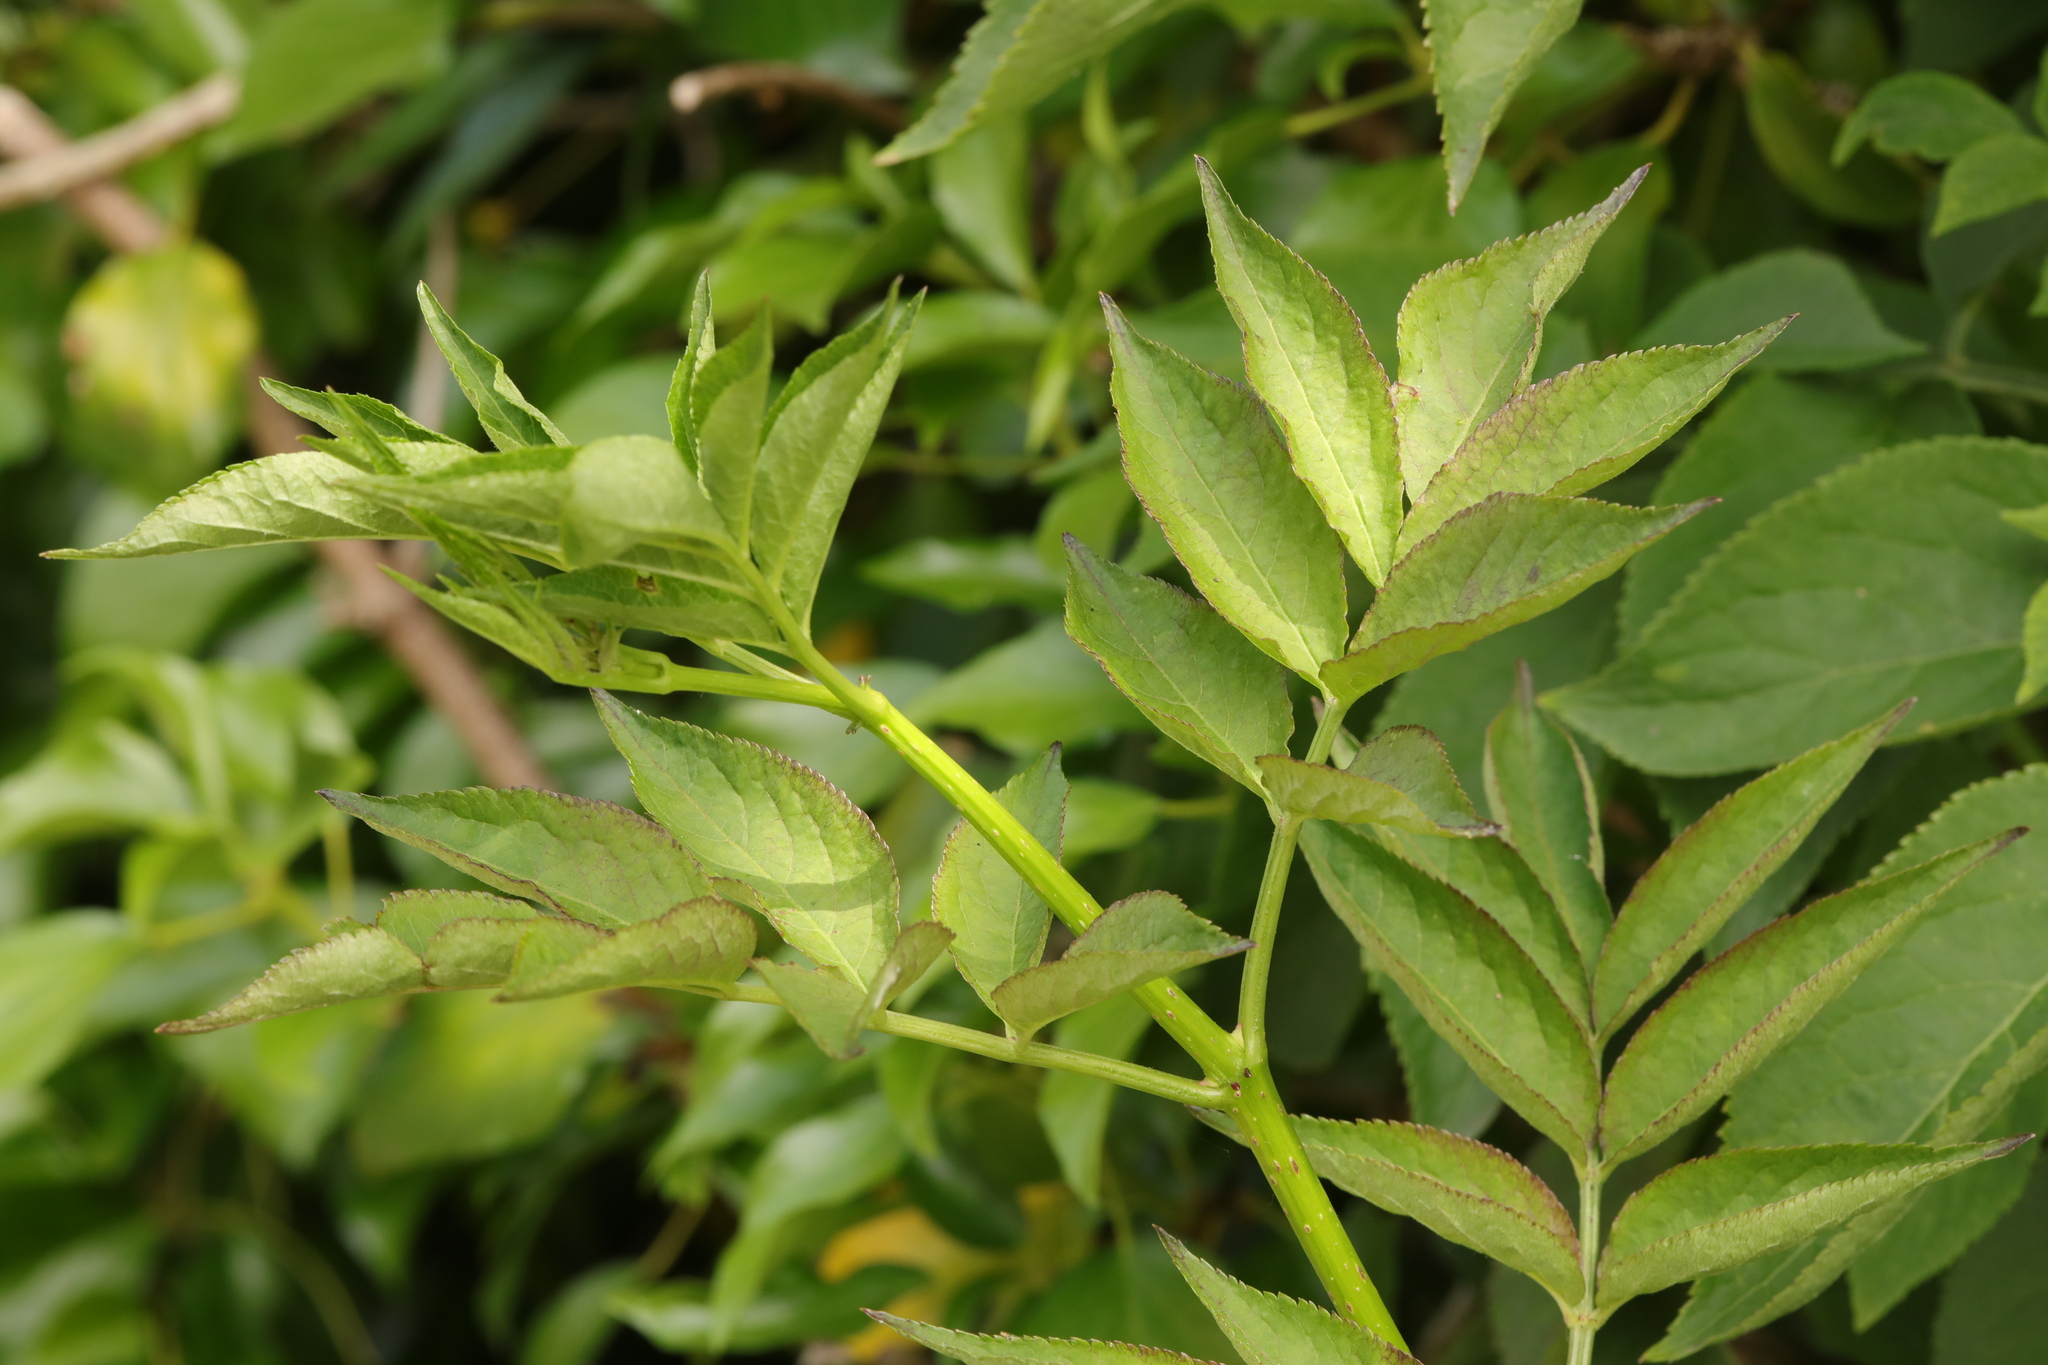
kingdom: Plantae
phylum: Tracheophyta
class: Magnoliopsida
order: Dipsacales
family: Viburnaceae
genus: Sambucus
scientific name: Sambucus nigra
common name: Elder
